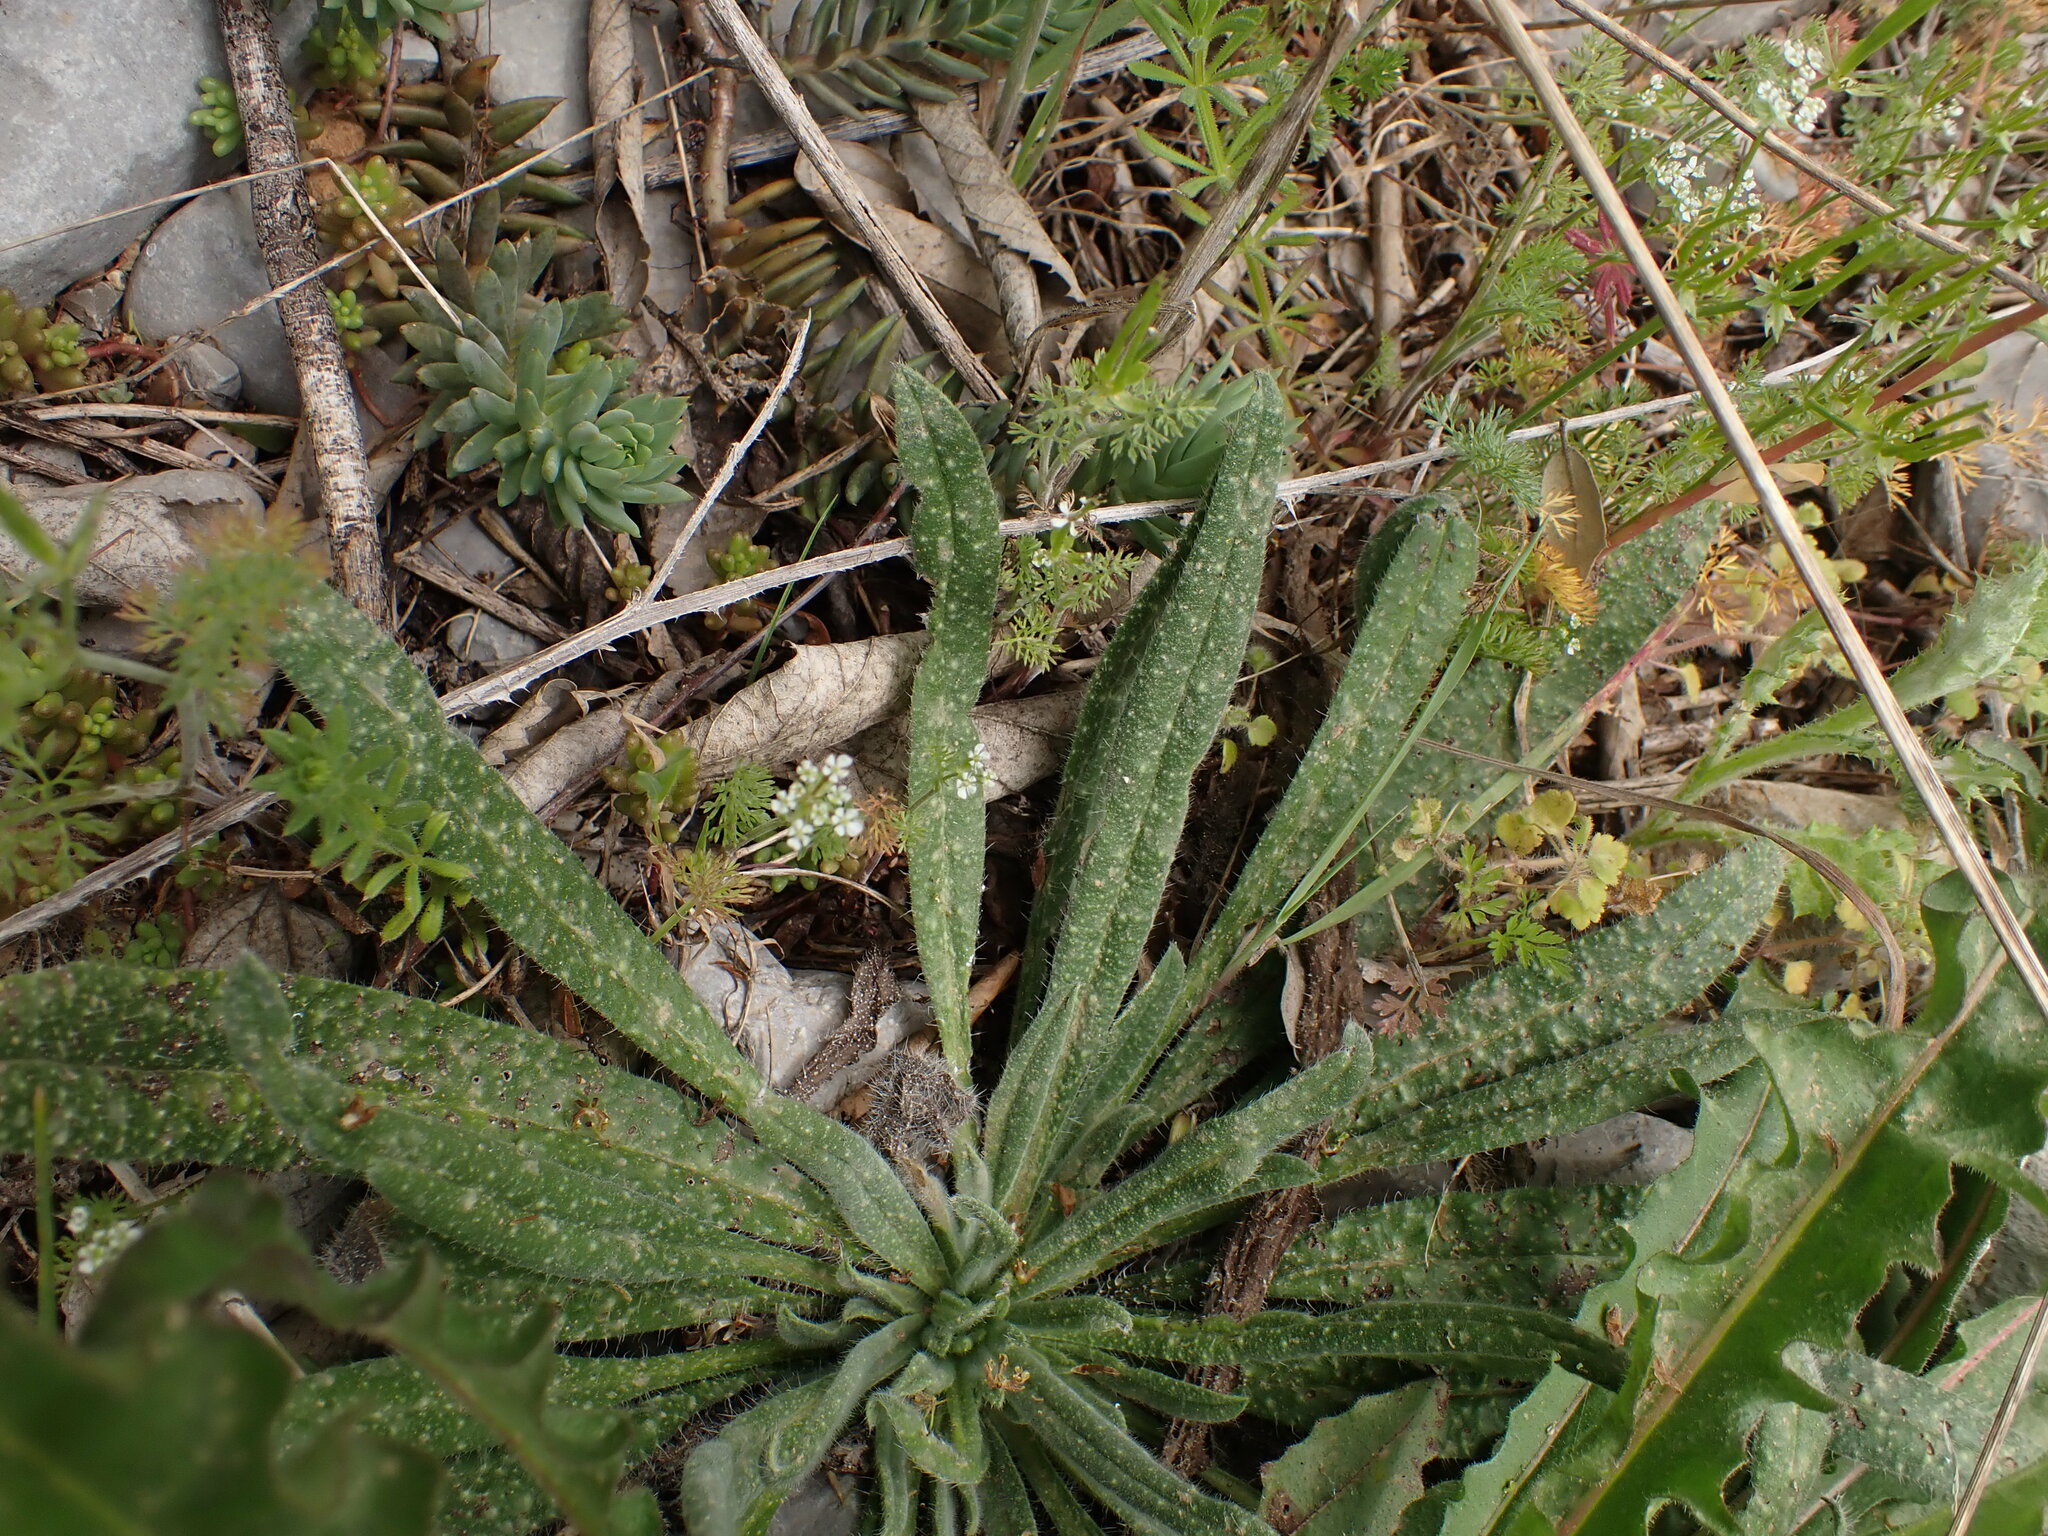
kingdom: Plantae
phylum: Tracheophyta
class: Magnoliopsida
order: Boraginales
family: Boraginaceae
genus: Echium
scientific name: Echium vulgare
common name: Common viper's bugloss
